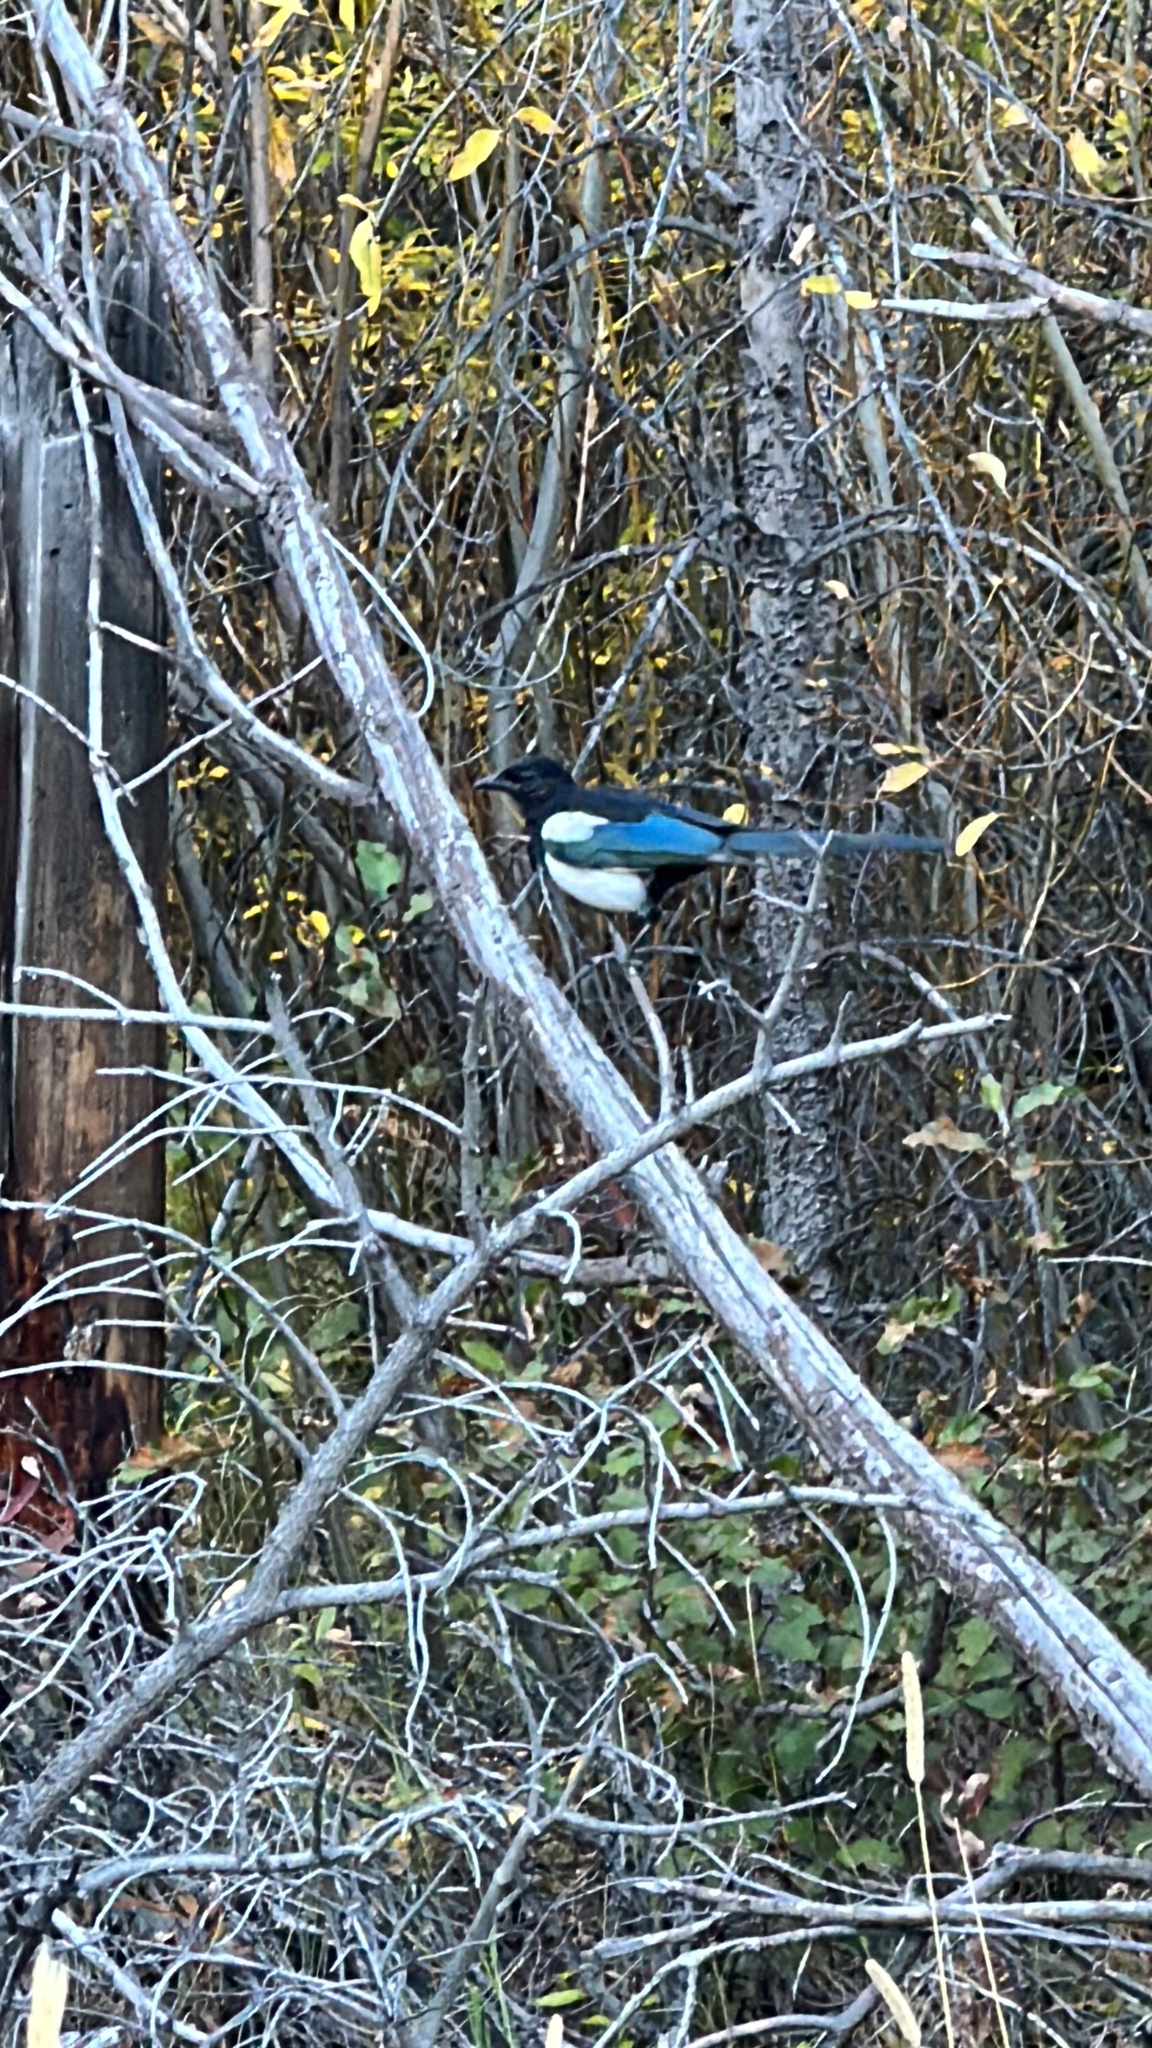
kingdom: Animalia
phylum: Chordata
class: Aves
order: Passeriformes
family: Corvidae
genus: Pica
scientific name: Pica hudsonia
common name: Black-billed magpie
